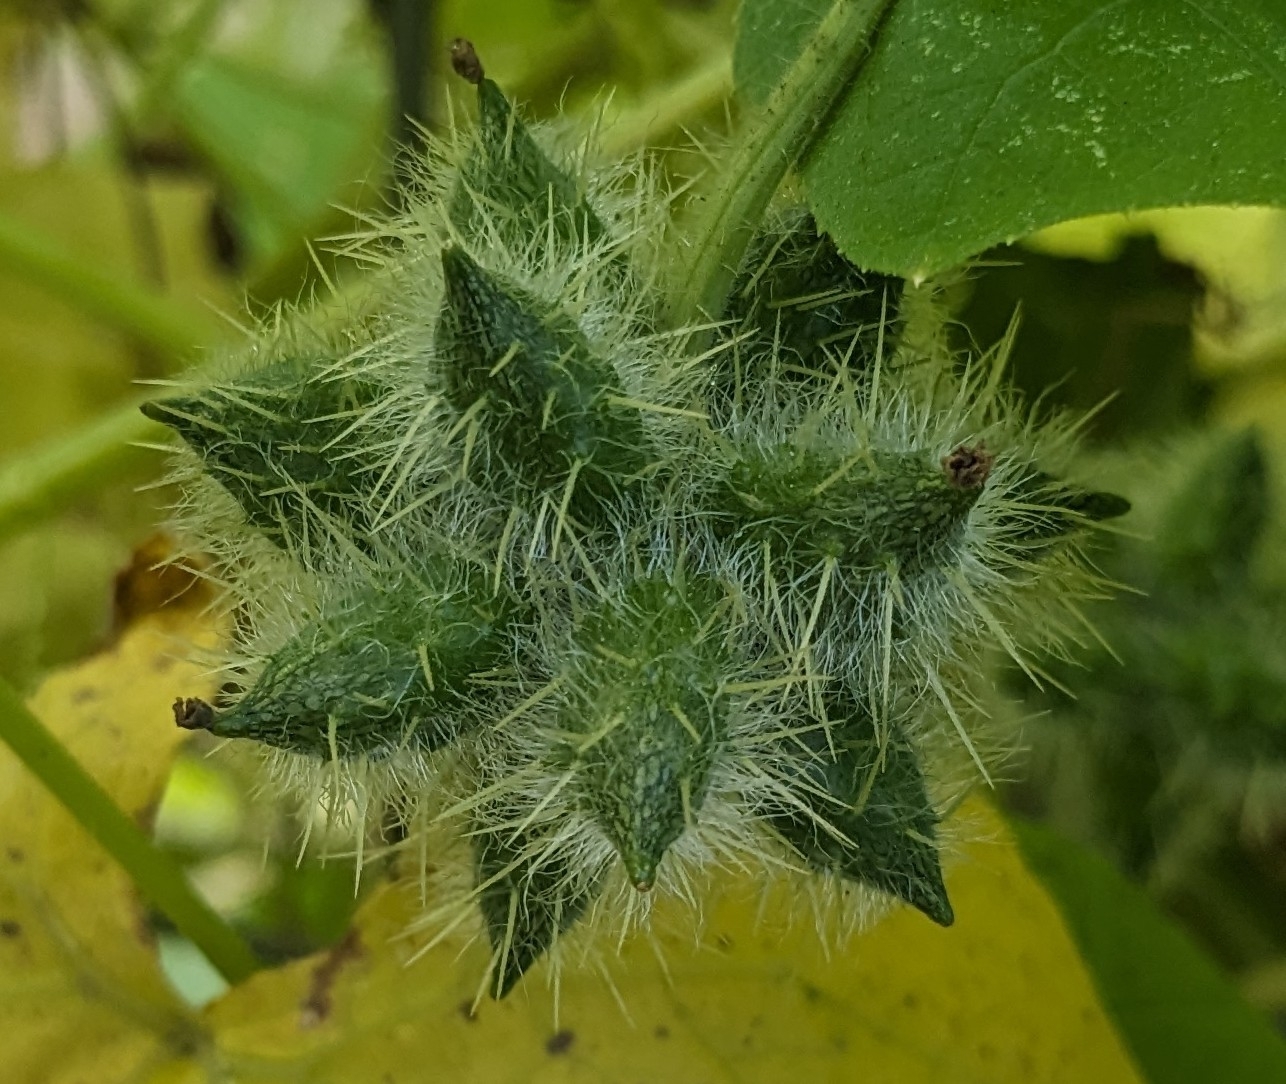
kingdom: Plantae
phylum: Tracheophyta
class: Magnoliopsida
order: Cucurbitales
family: Cucurbitaceae
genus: Sicyos
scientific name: Sicyos angulatus
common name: Angled burr cucumber
